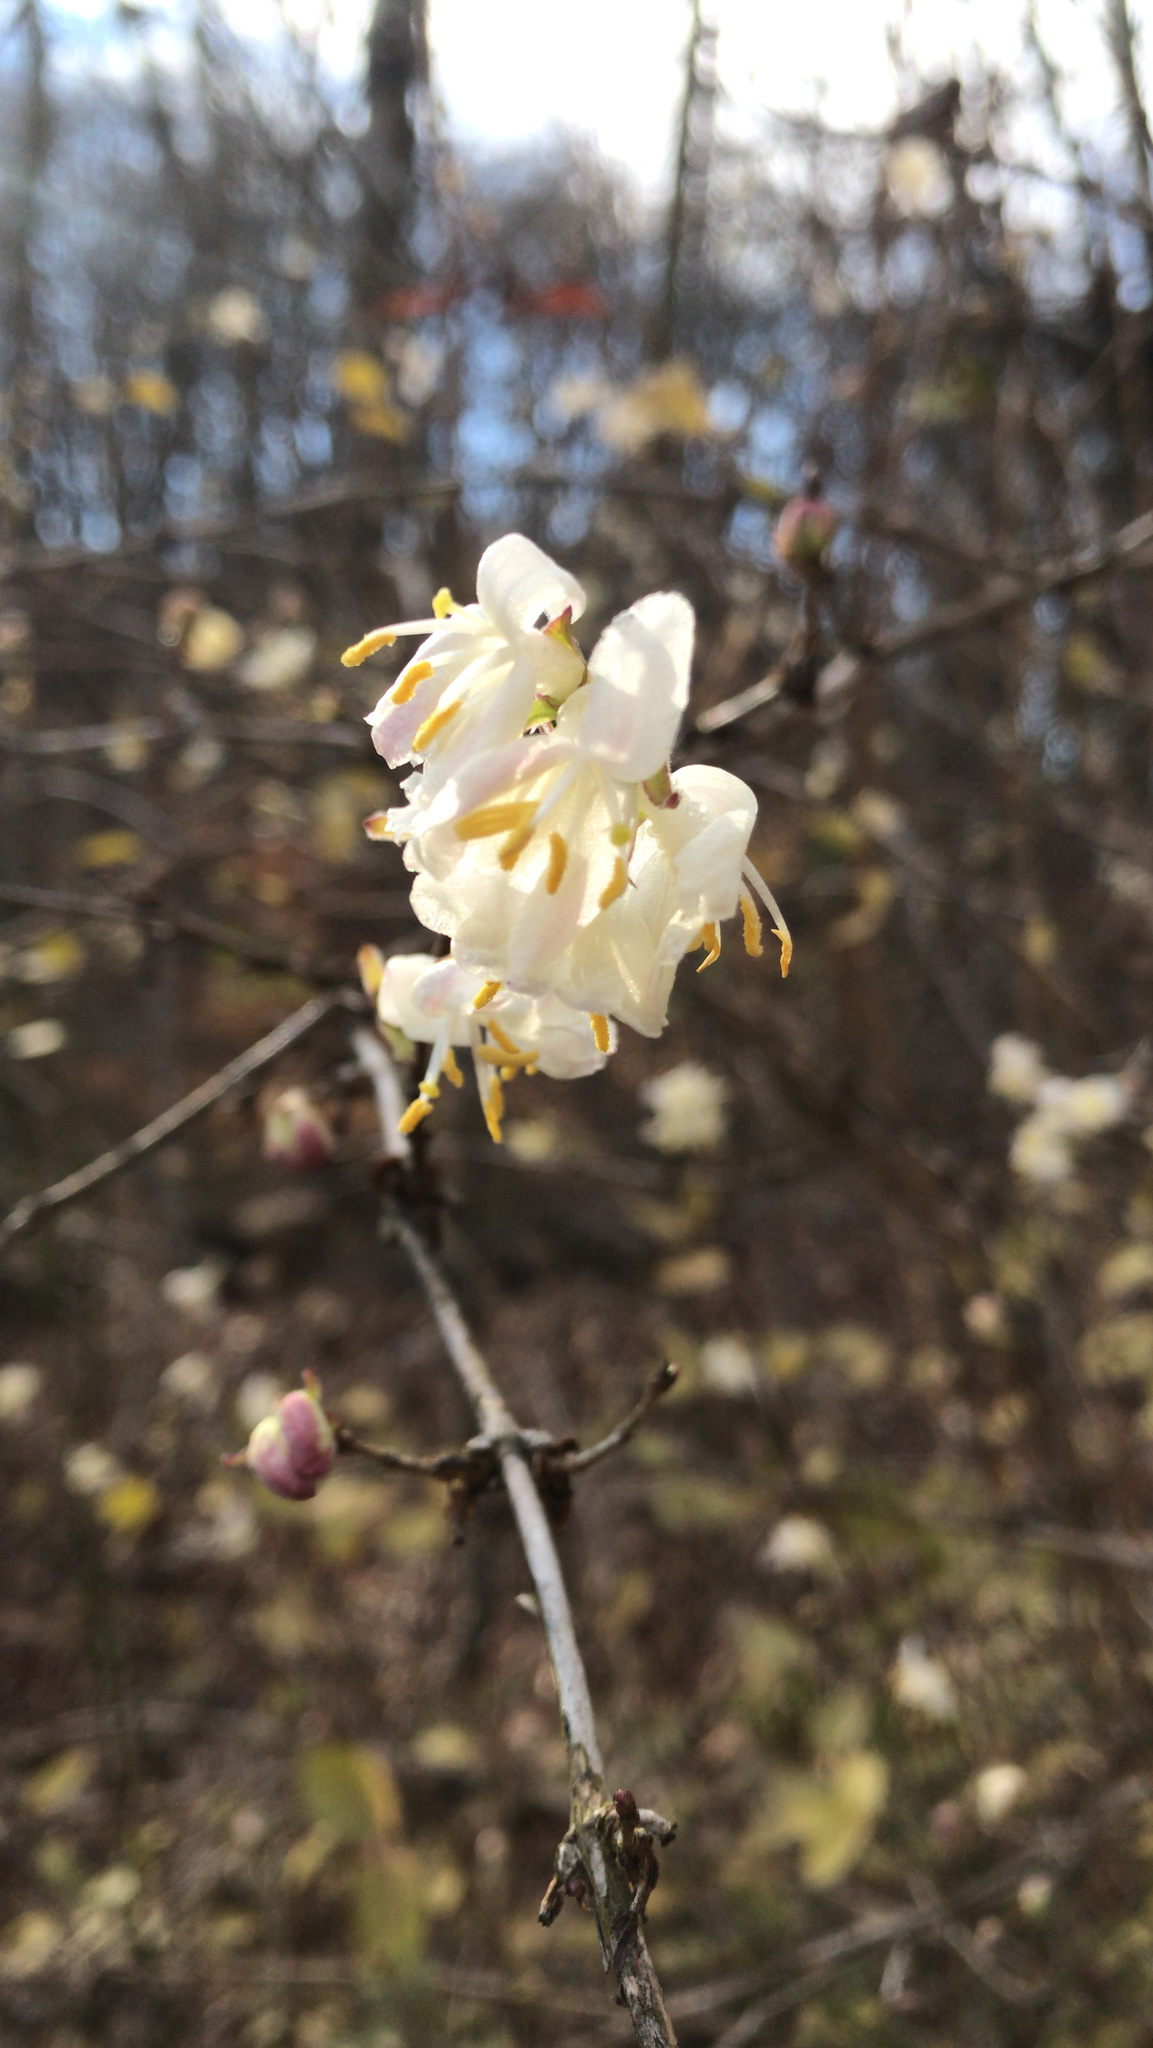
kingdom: Plantae
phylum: Tracheophyta
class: Magnoliopsida
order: Dipsacales
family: Caprifoliaceae
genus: Lonicera
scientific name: Lonicera fragrantissima
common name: Fragrant honeysuckle
